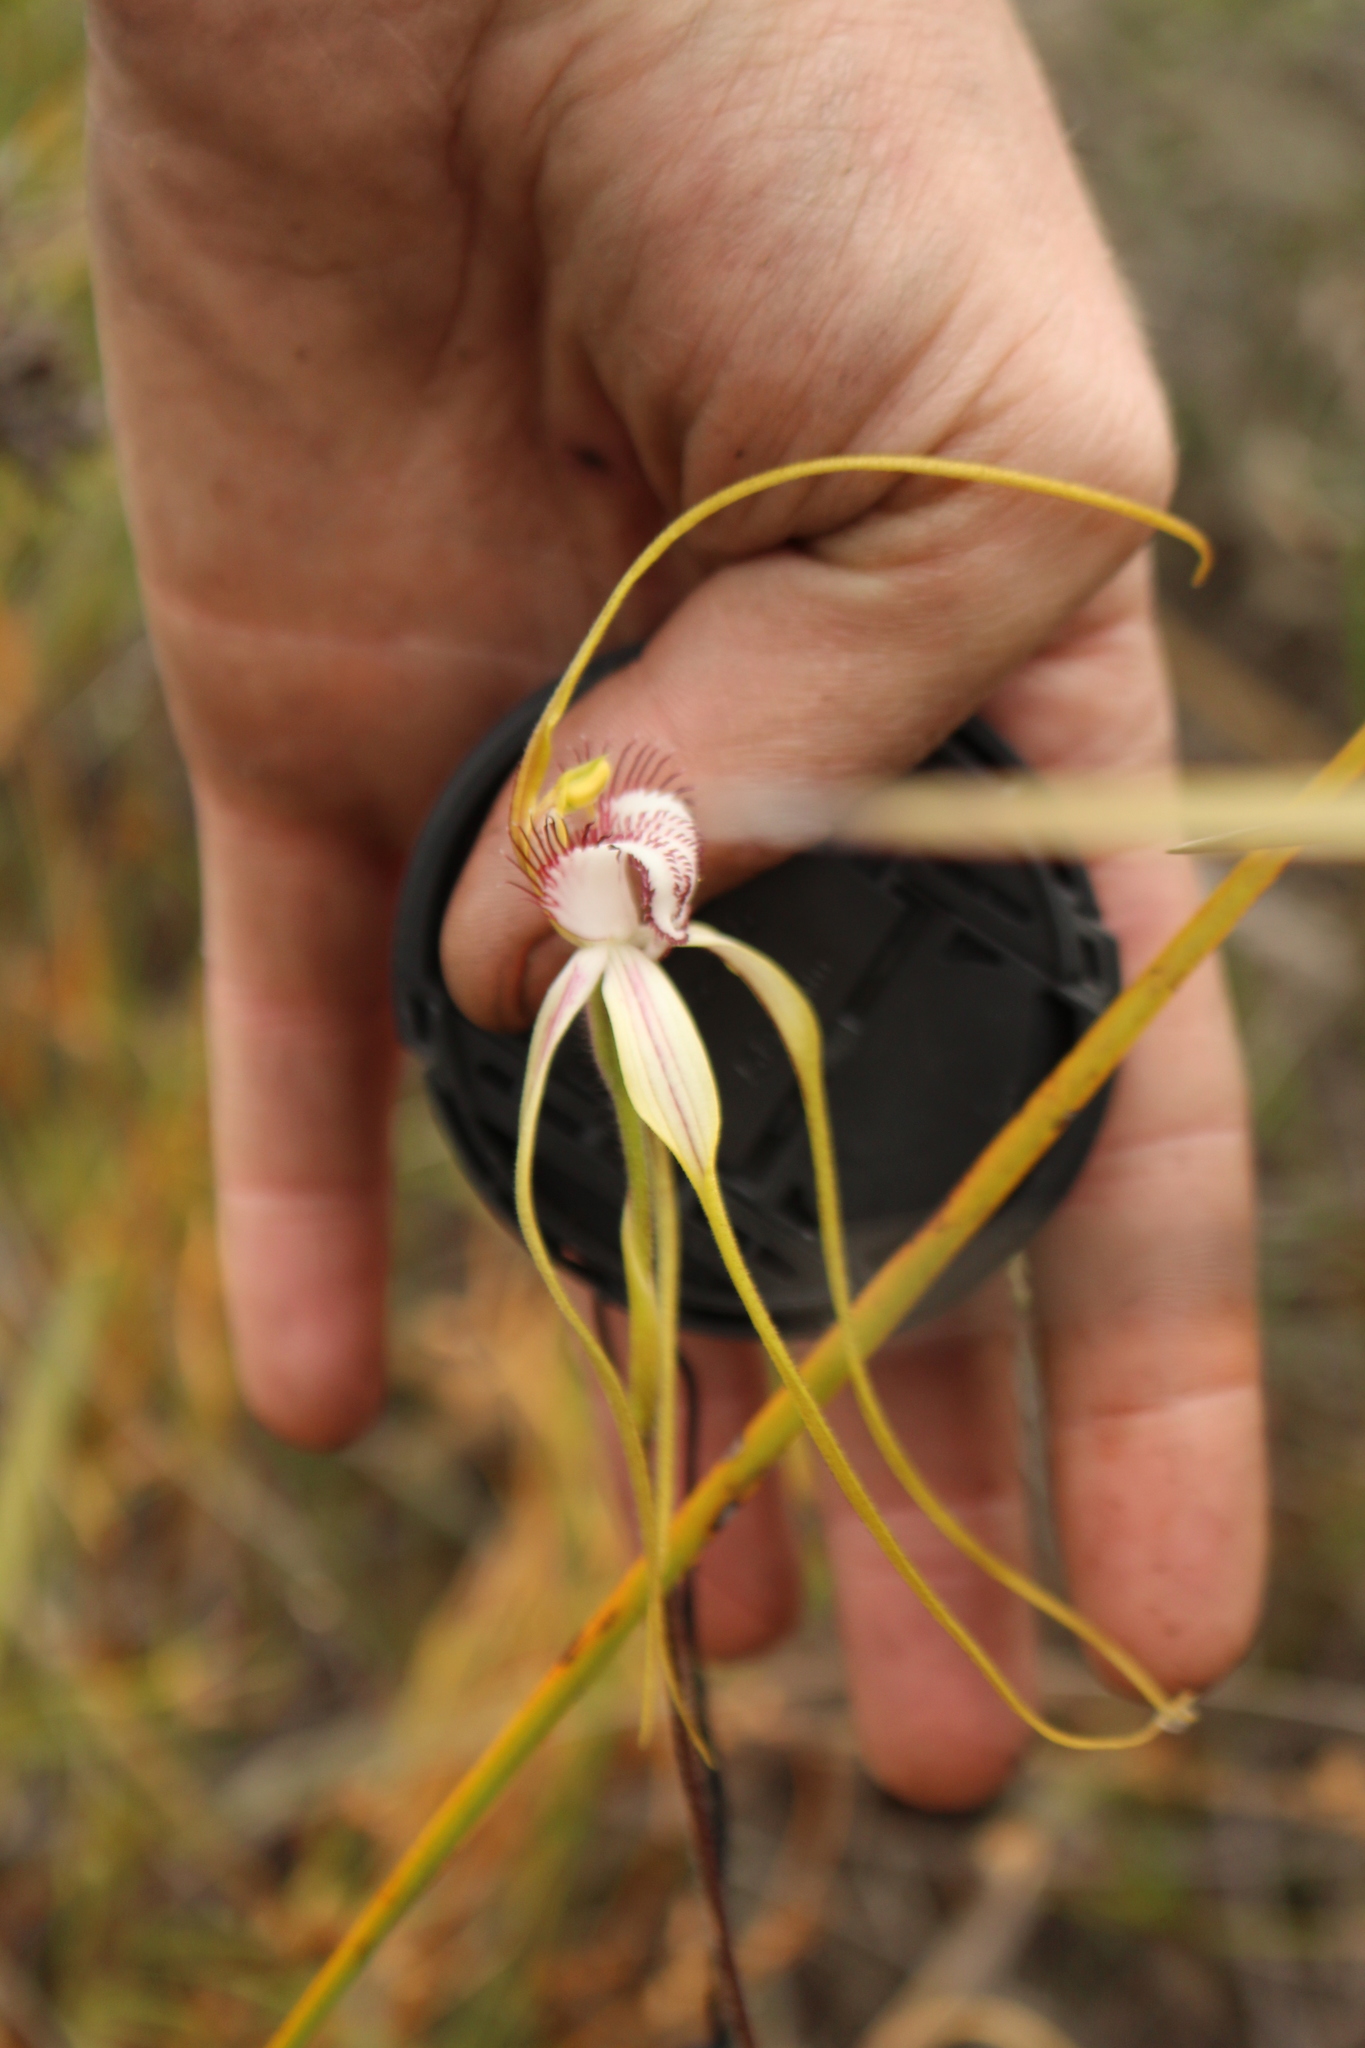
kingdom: Plantae
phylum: Tracheophyta
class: Liliopsida
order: Asparagales
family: Orchidaceae
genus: Caladenia
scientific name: Caladenia serotina
